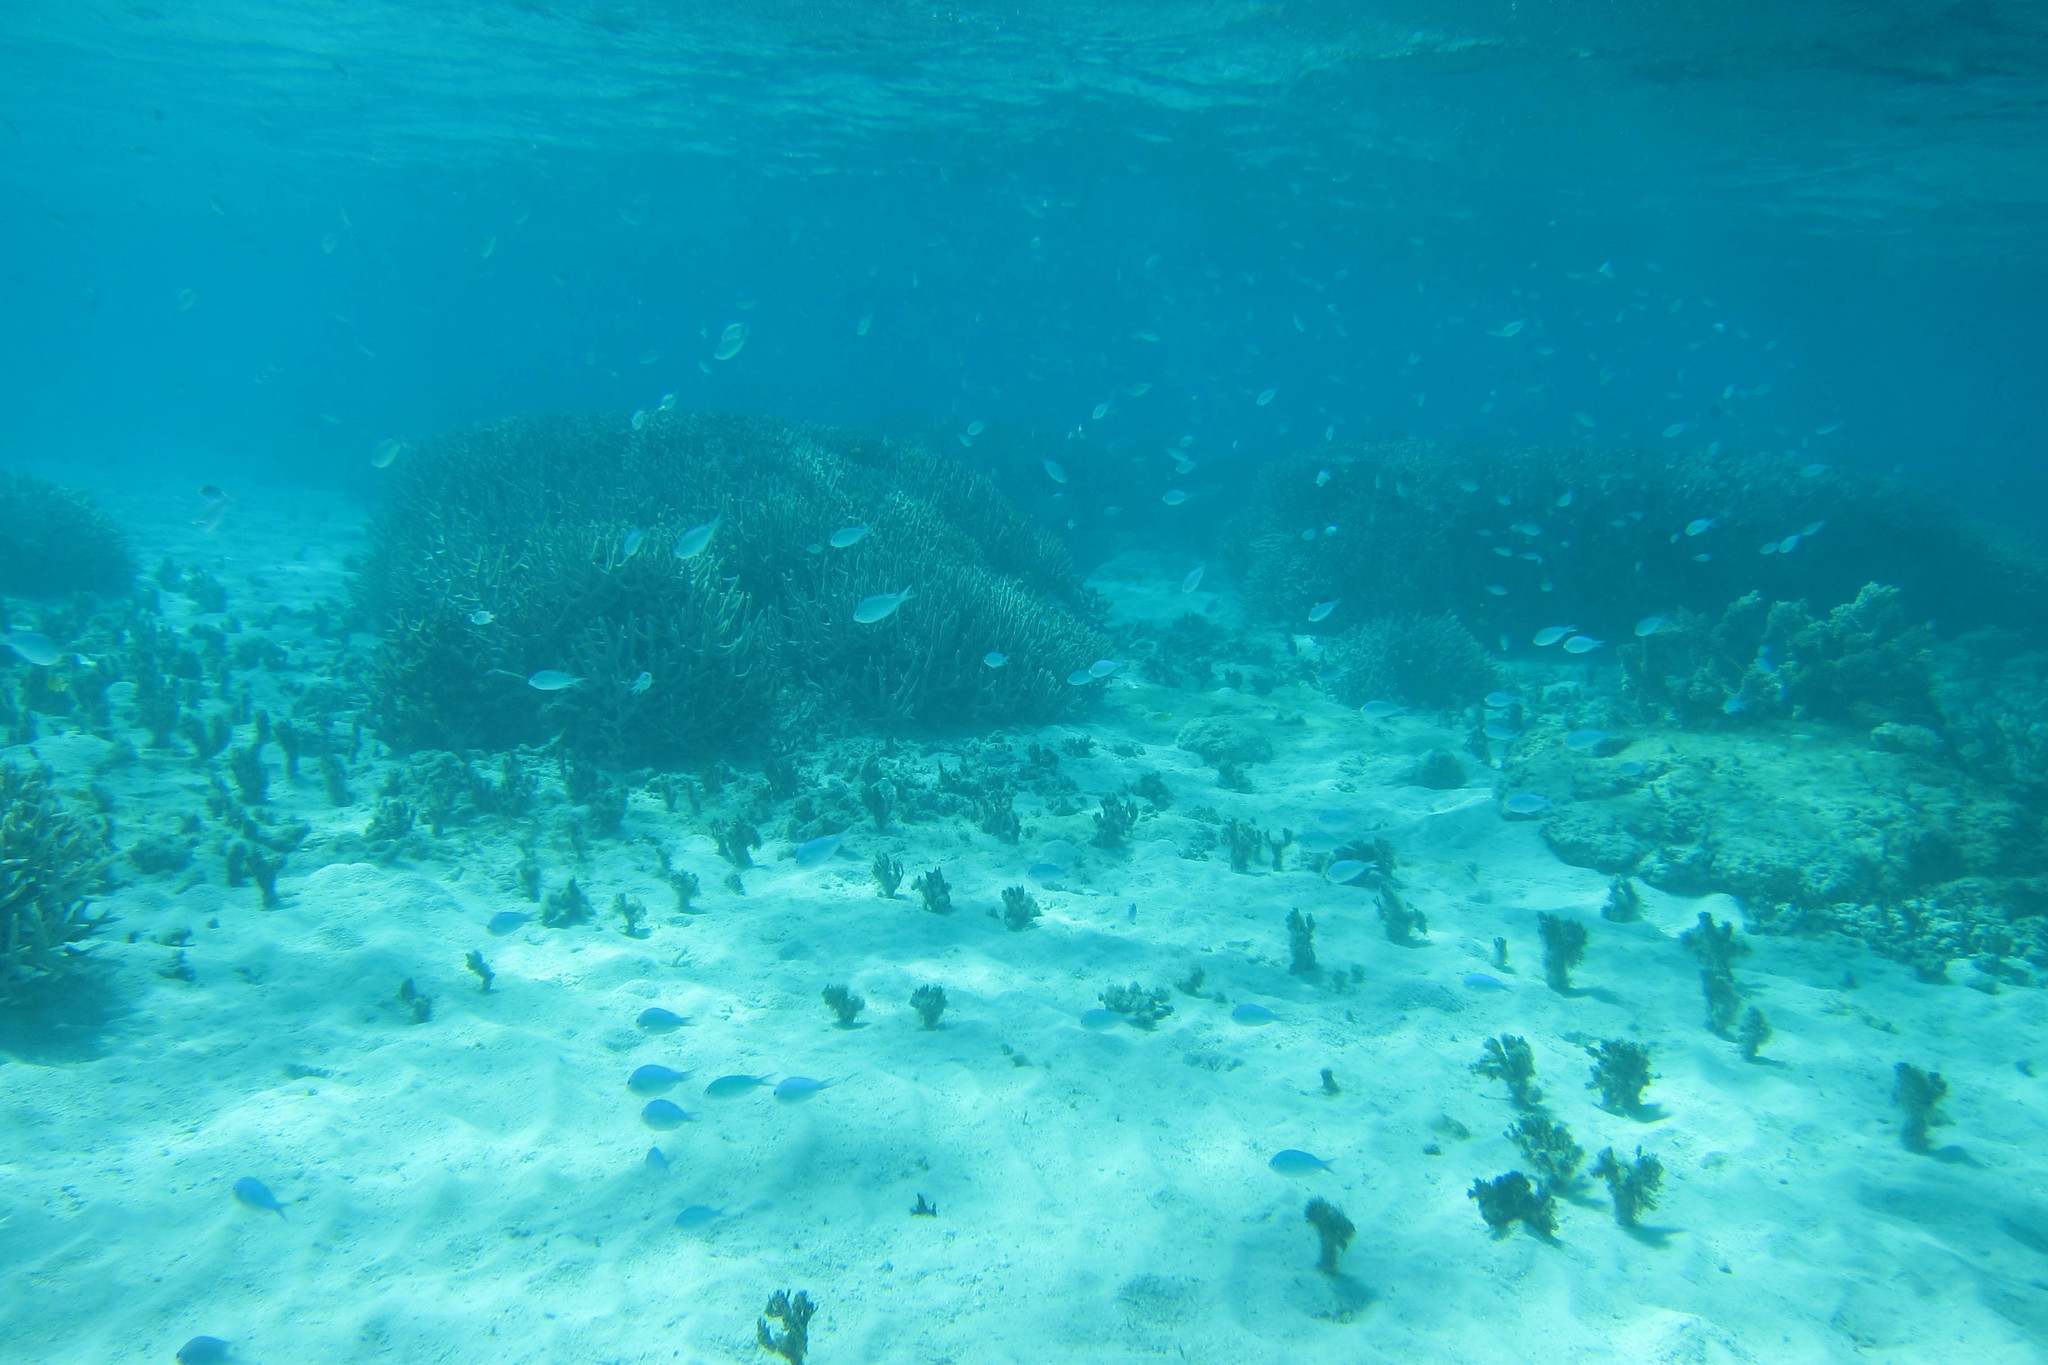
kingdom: Animalia
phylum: Chordata
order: Perciformes
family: Pomacentridae
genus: Chromis
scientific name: Chromis viridis
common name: Blue-green chromis
